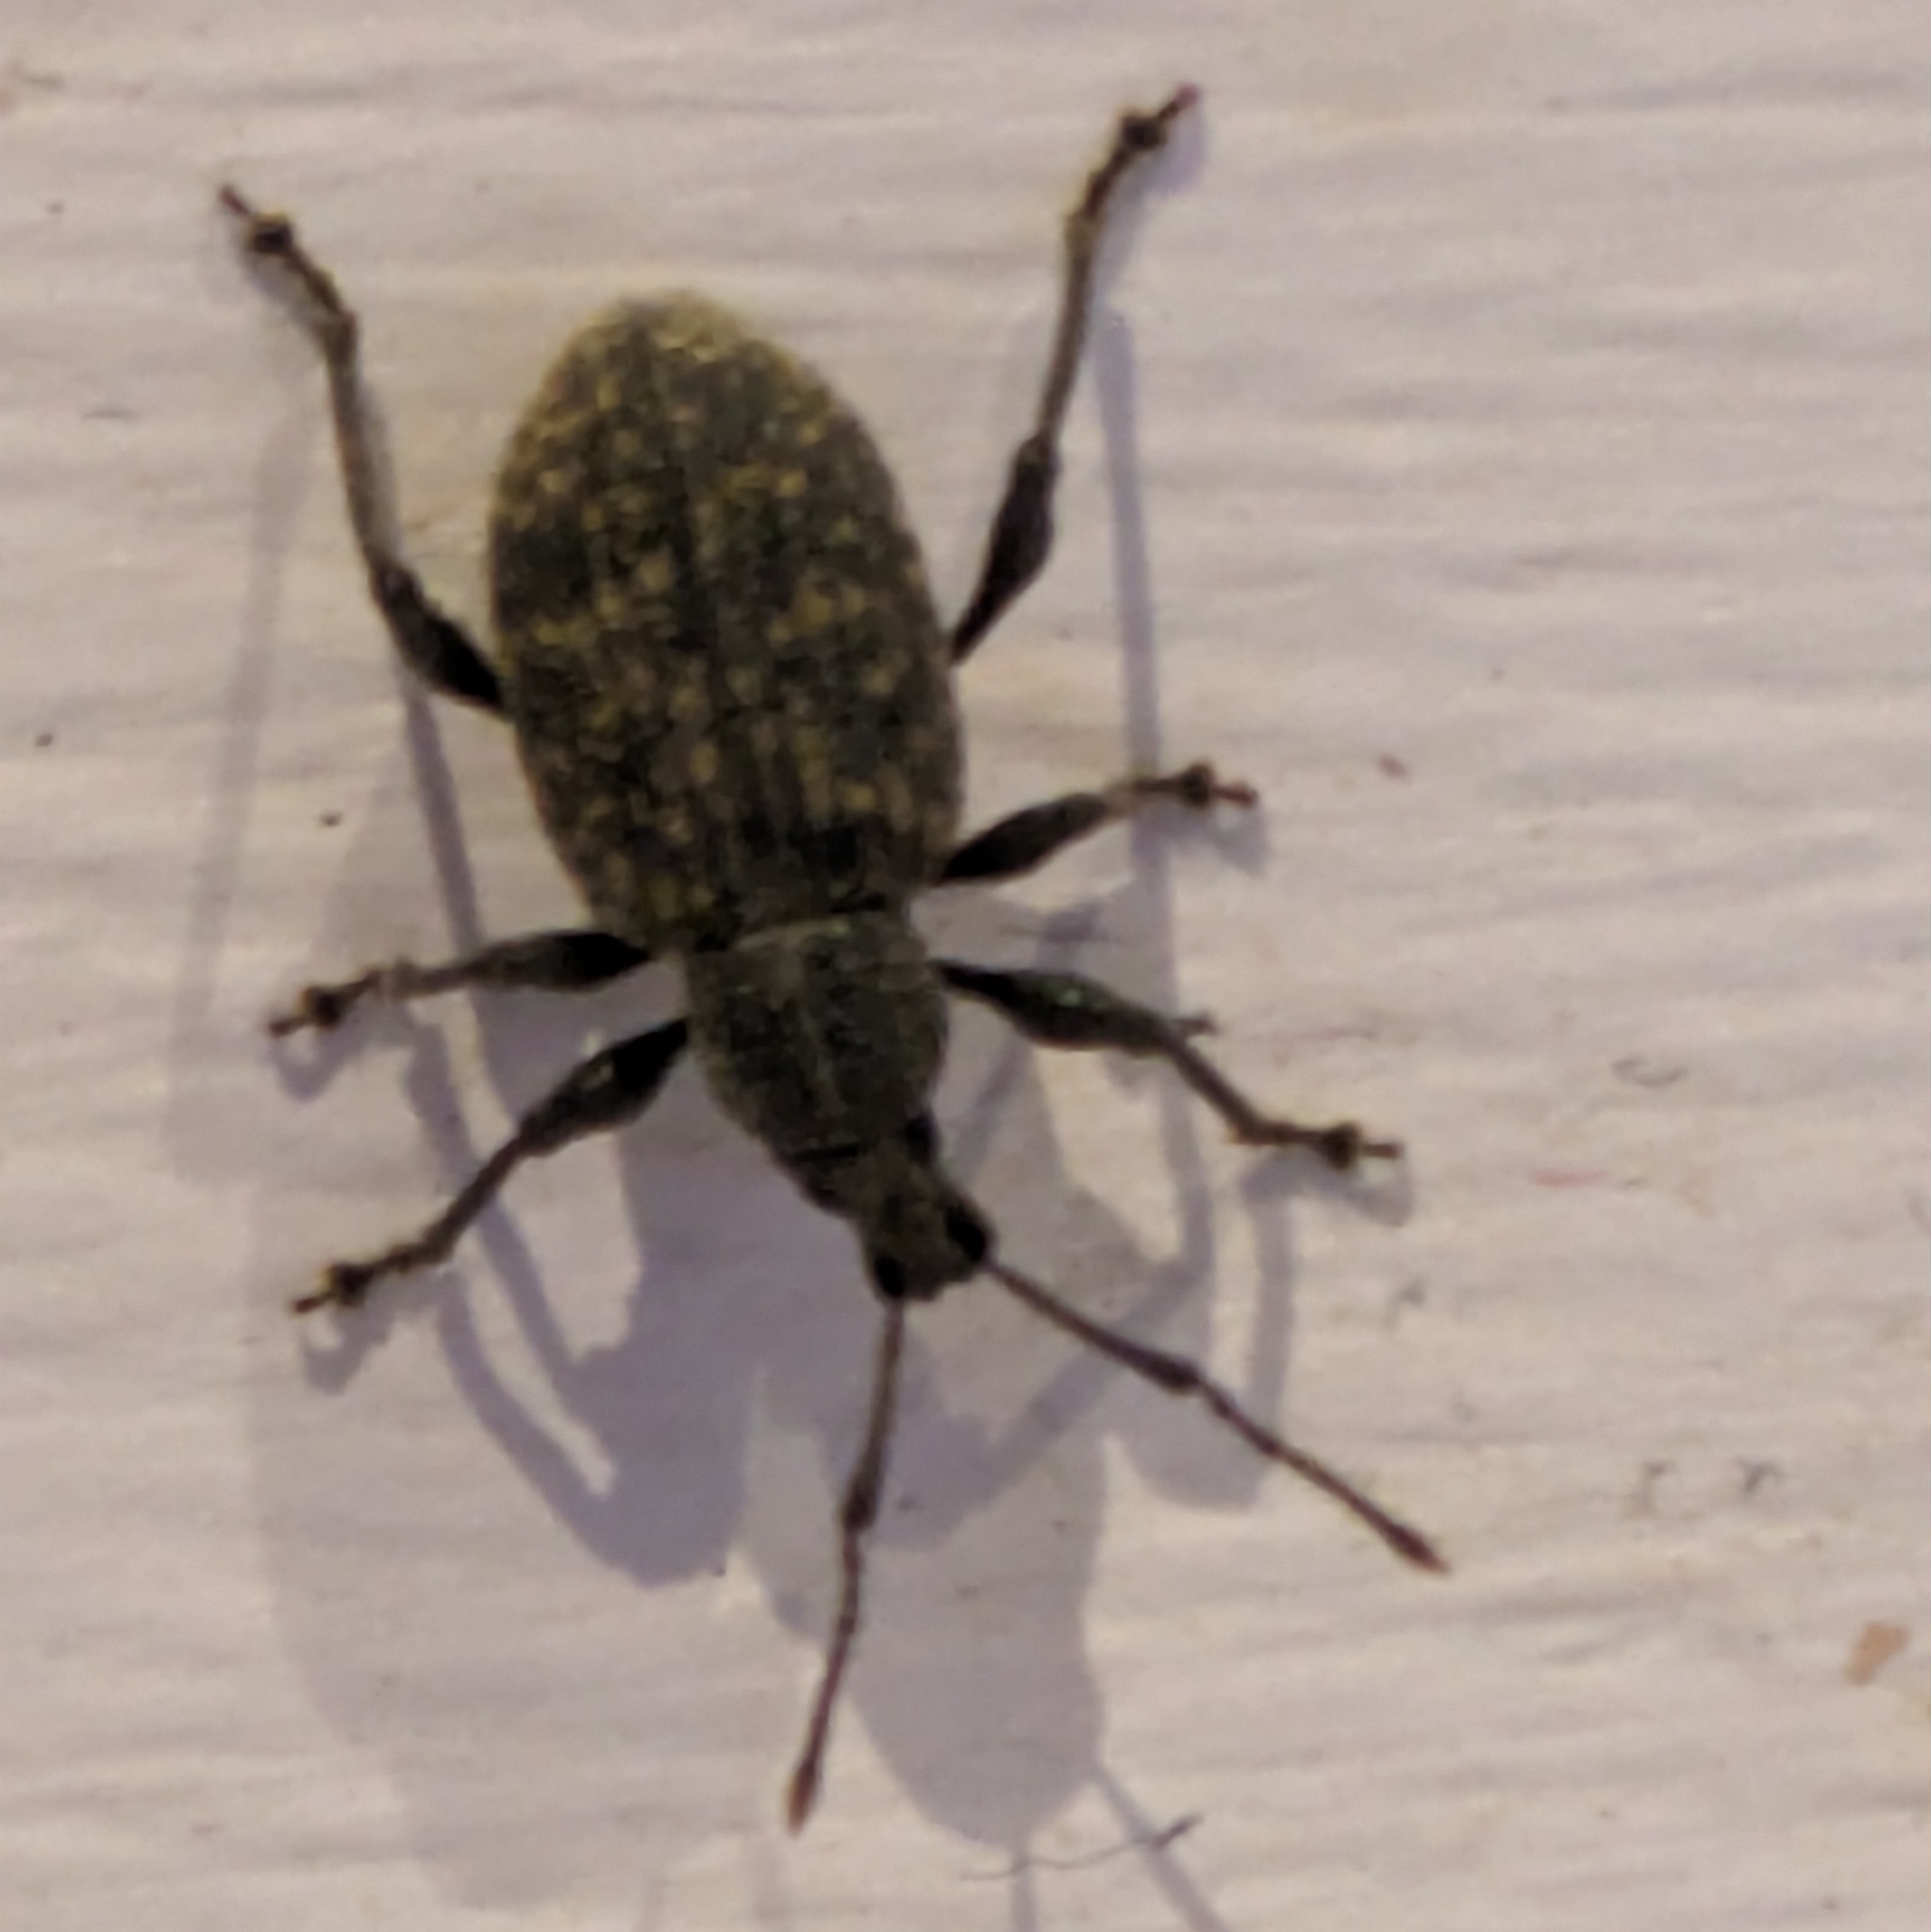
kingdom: Animalia
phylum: Arthropoda
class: Insecta
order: Coleoptera
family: Curculionidae
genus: Otiorhynchus
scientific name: Otiorhynchus sulcatus
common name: Black vine weevil
